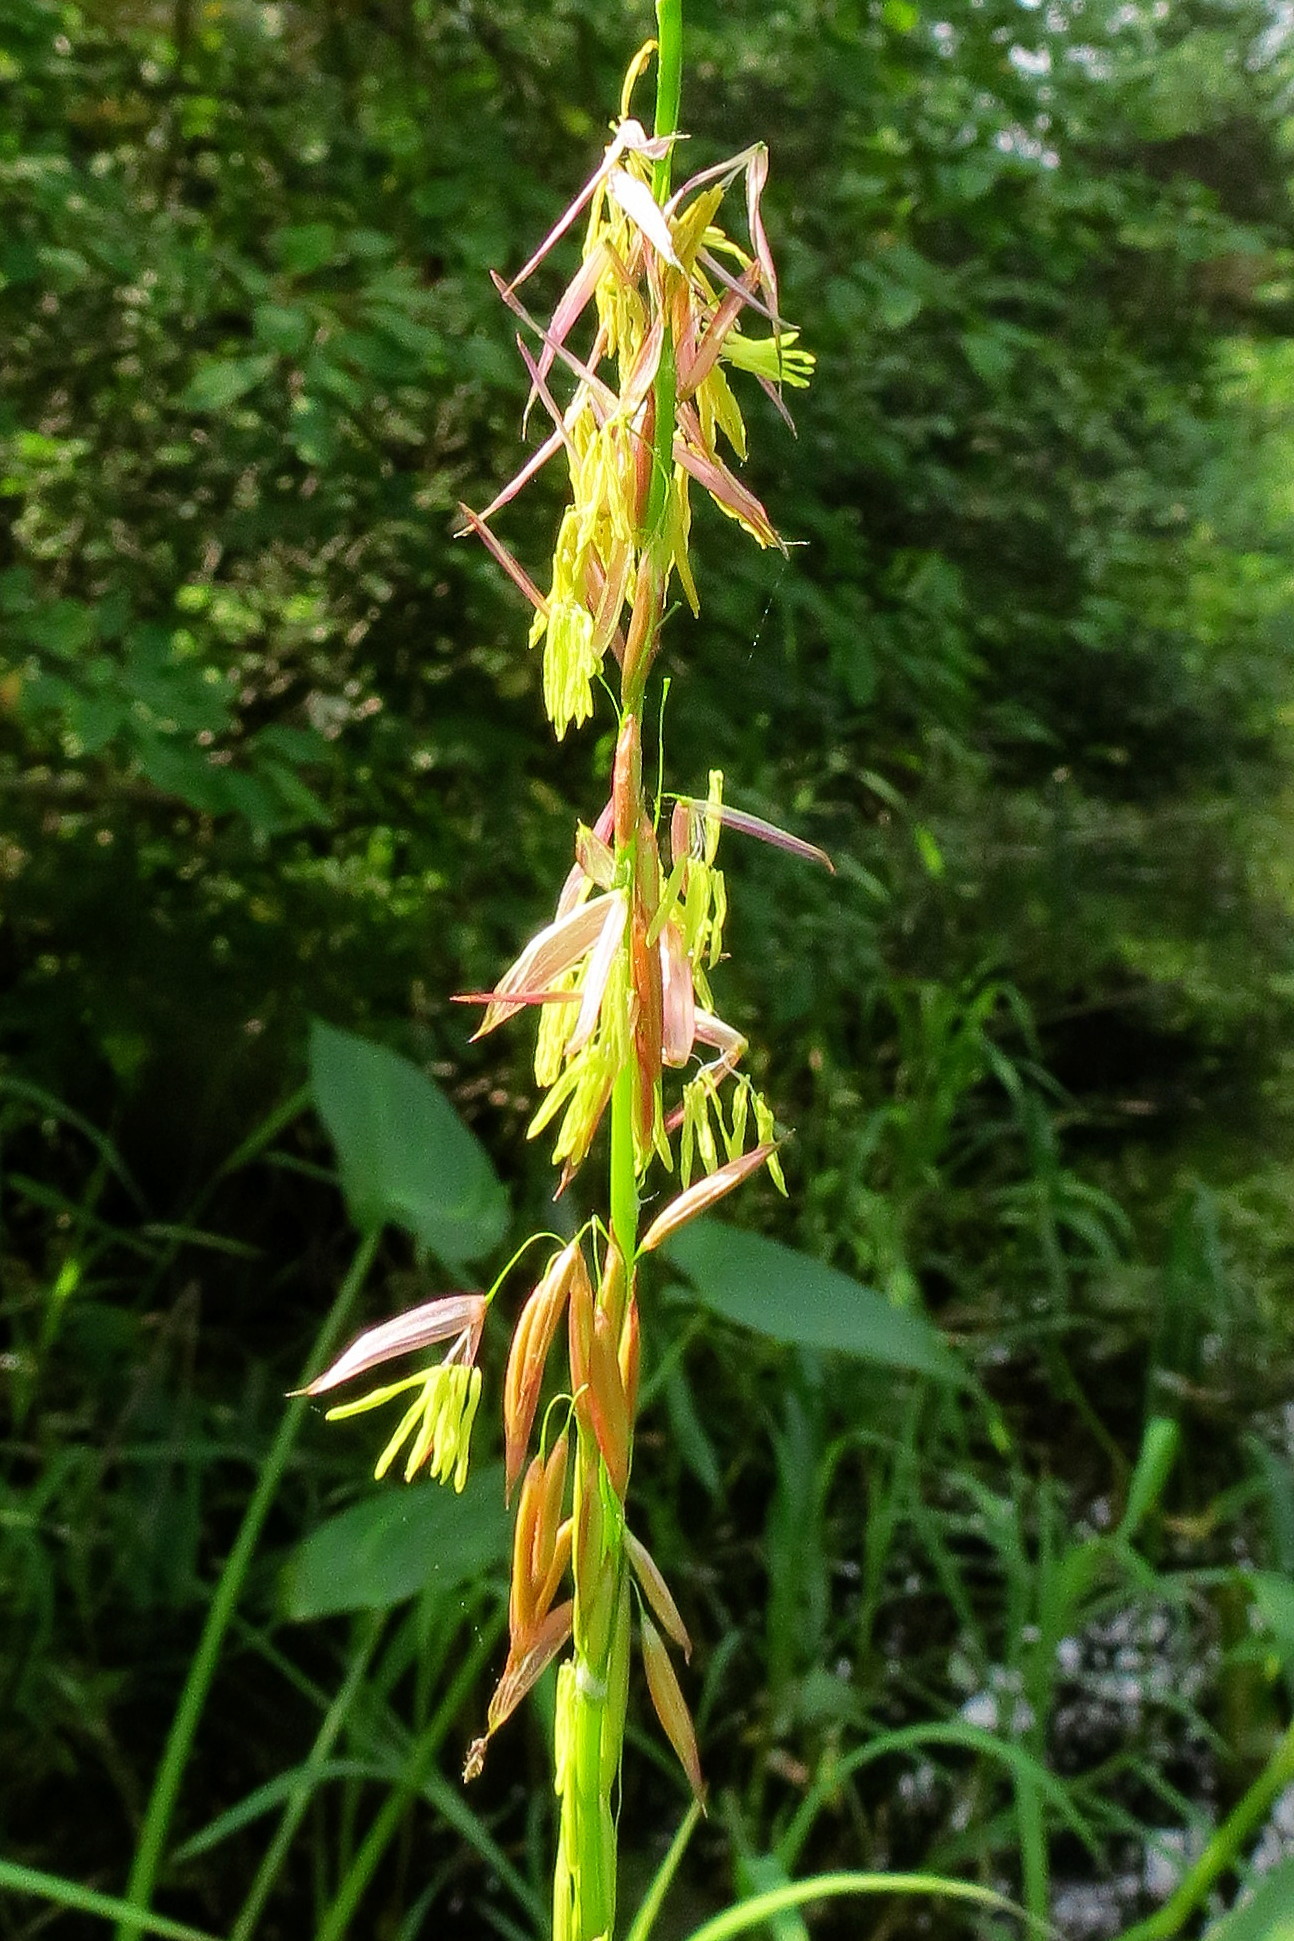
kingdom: Plantae
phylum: Tracheophyta
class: Liliopsida
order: Poales
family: Poaceae
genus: Zizania
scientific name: Zizania palustris
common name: Northern wild rice
